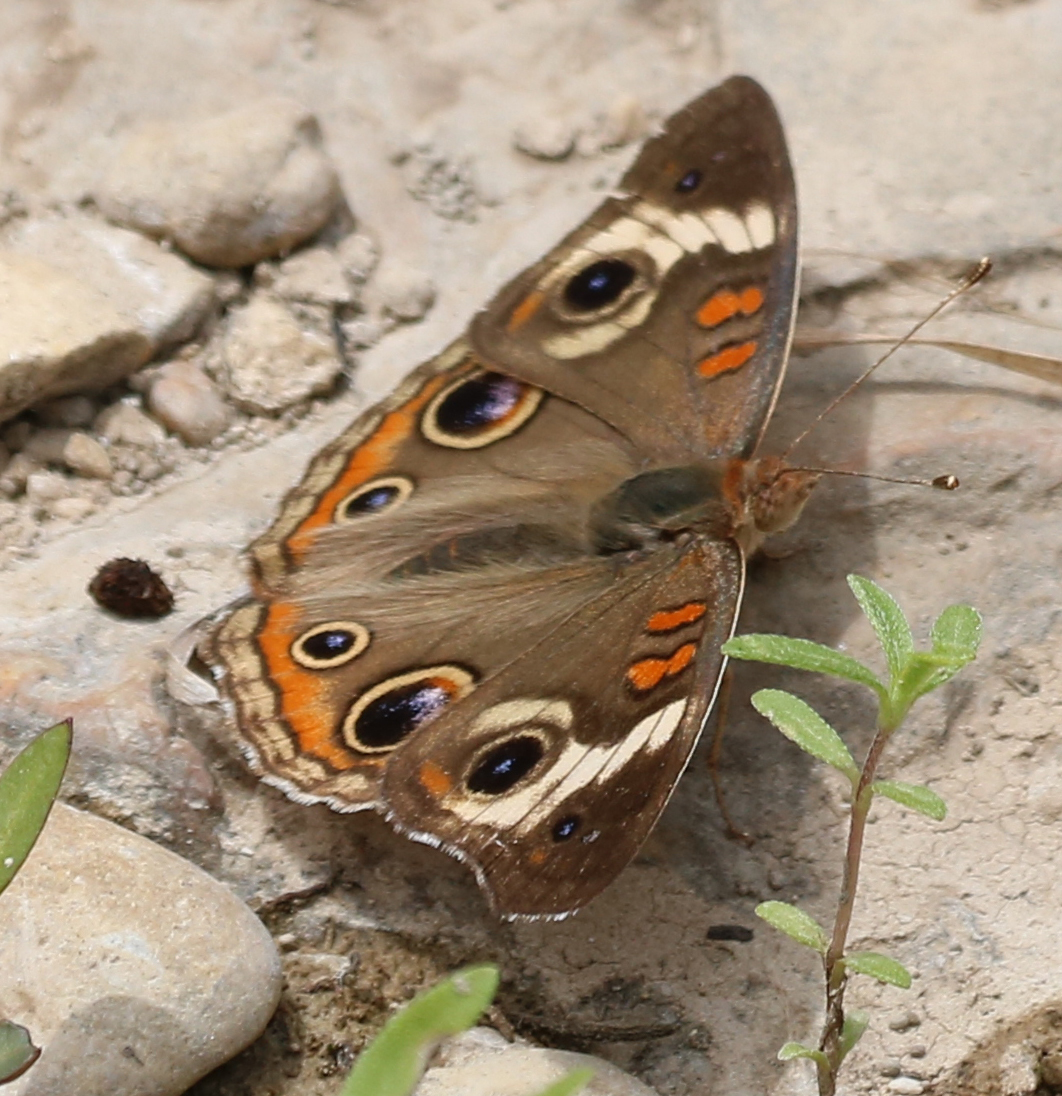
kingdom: Animalia
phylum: Arthropoda
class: Insecta
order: Lepidoptera
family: Nymphalidae
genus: Junonia
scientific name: Junonia coenia
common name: Common buckeye
